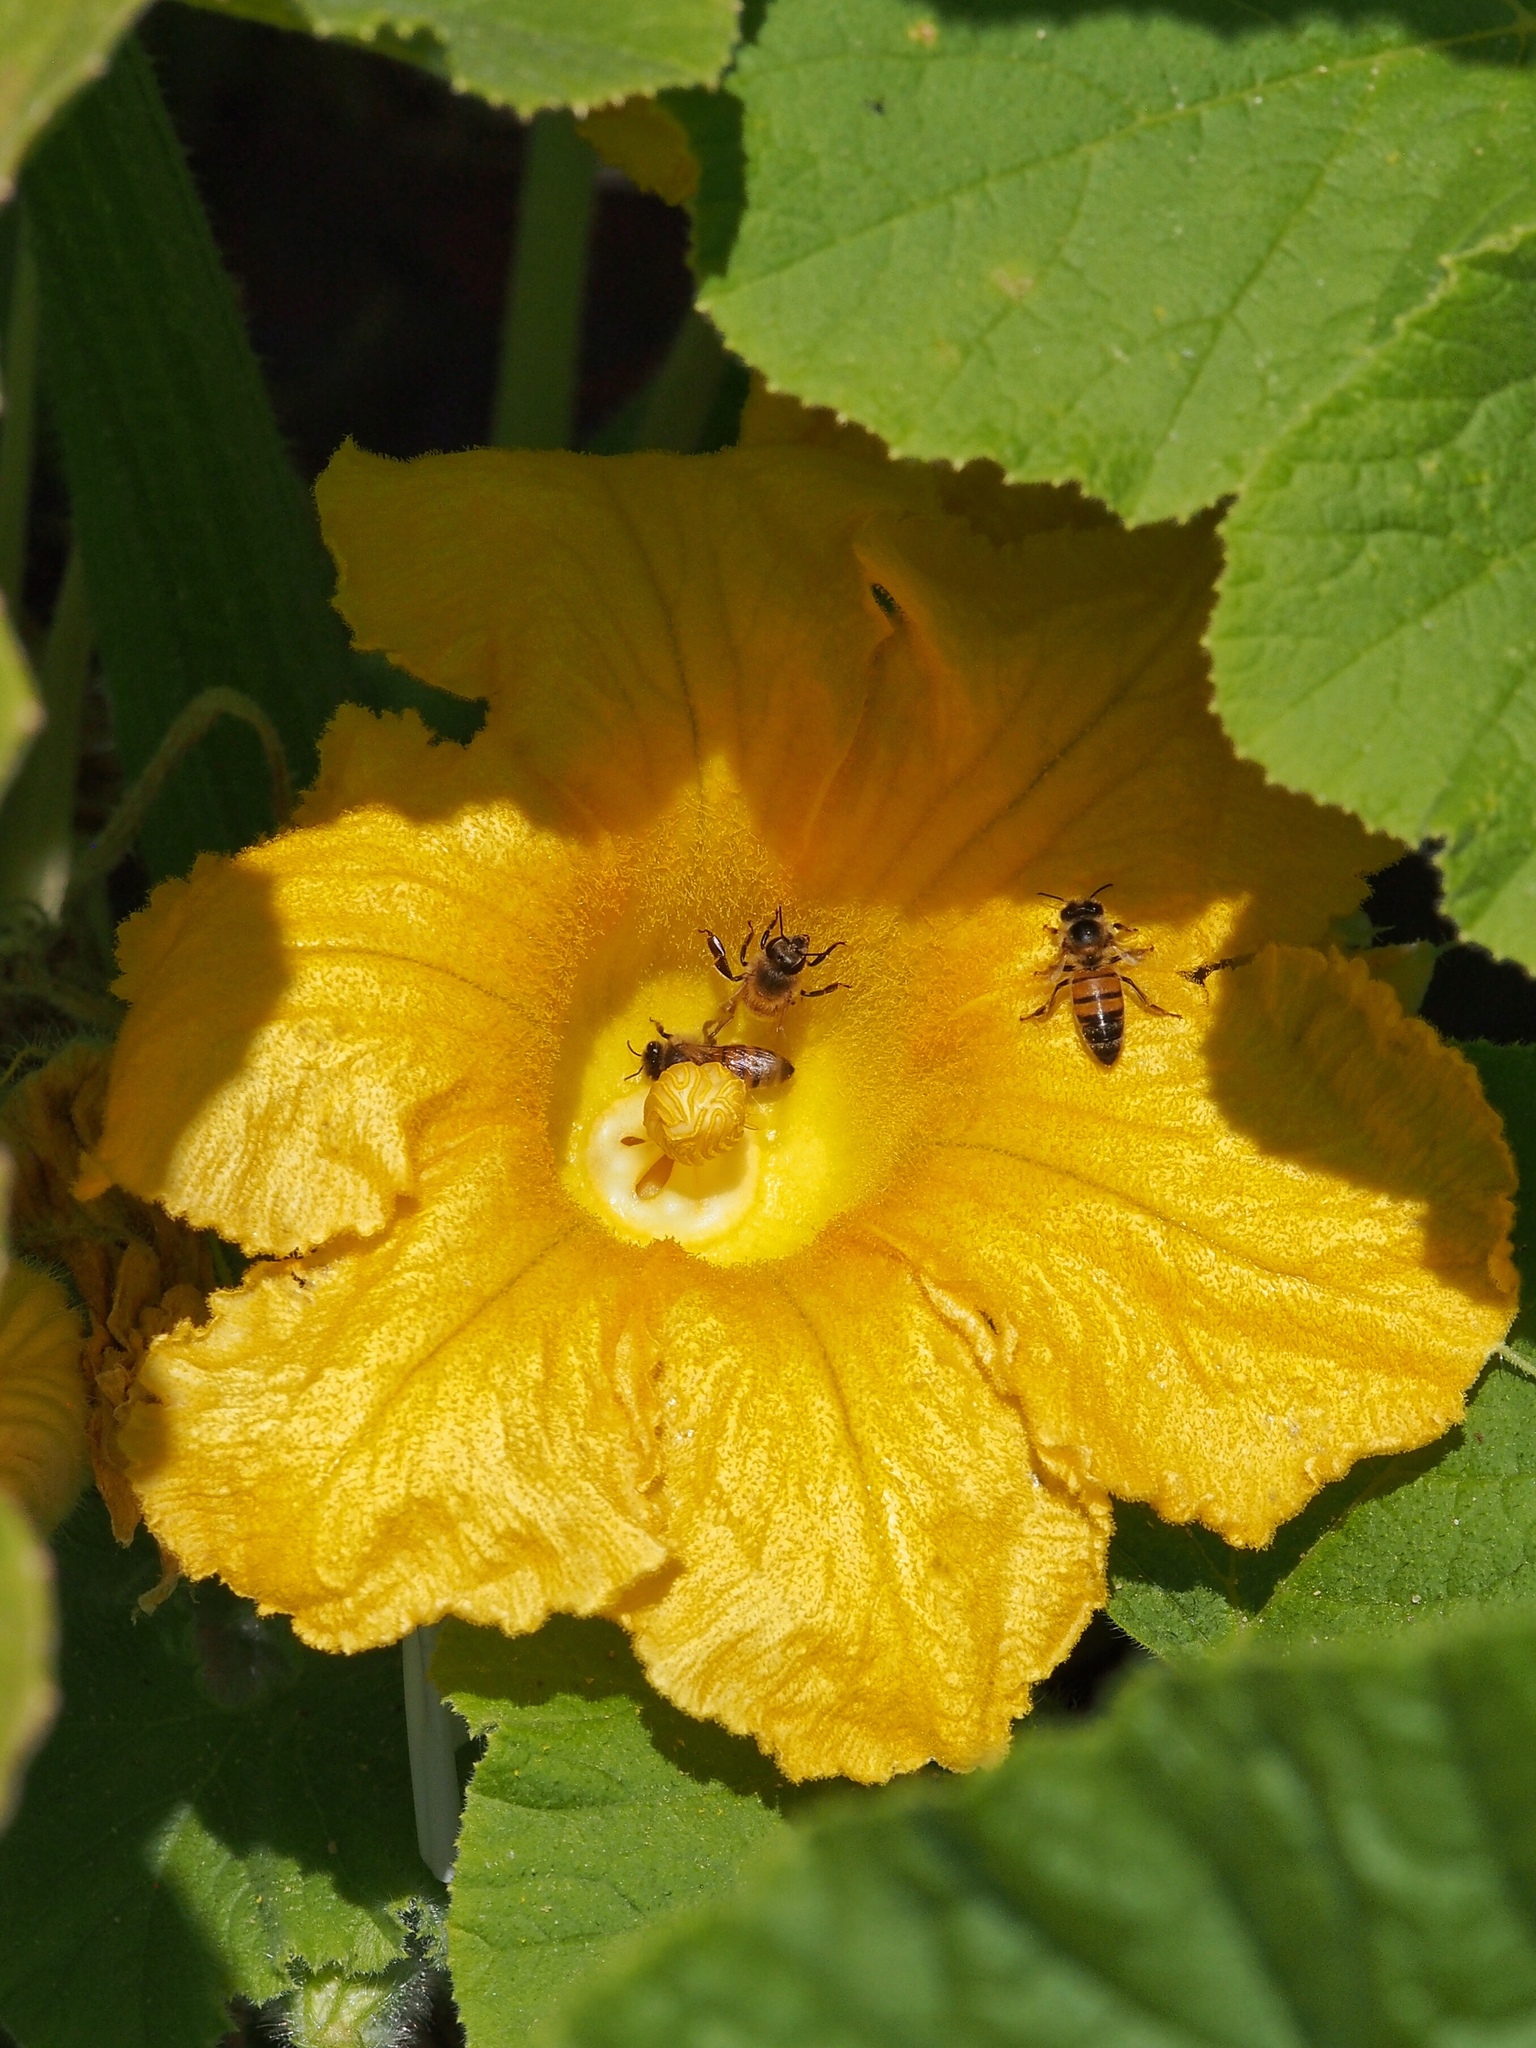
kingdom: Animalia
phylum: Arthropoda
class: Insecta
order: Hymenoptera
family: Apidae
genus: Apis
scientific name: Apis mellifera
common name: Honey bee
